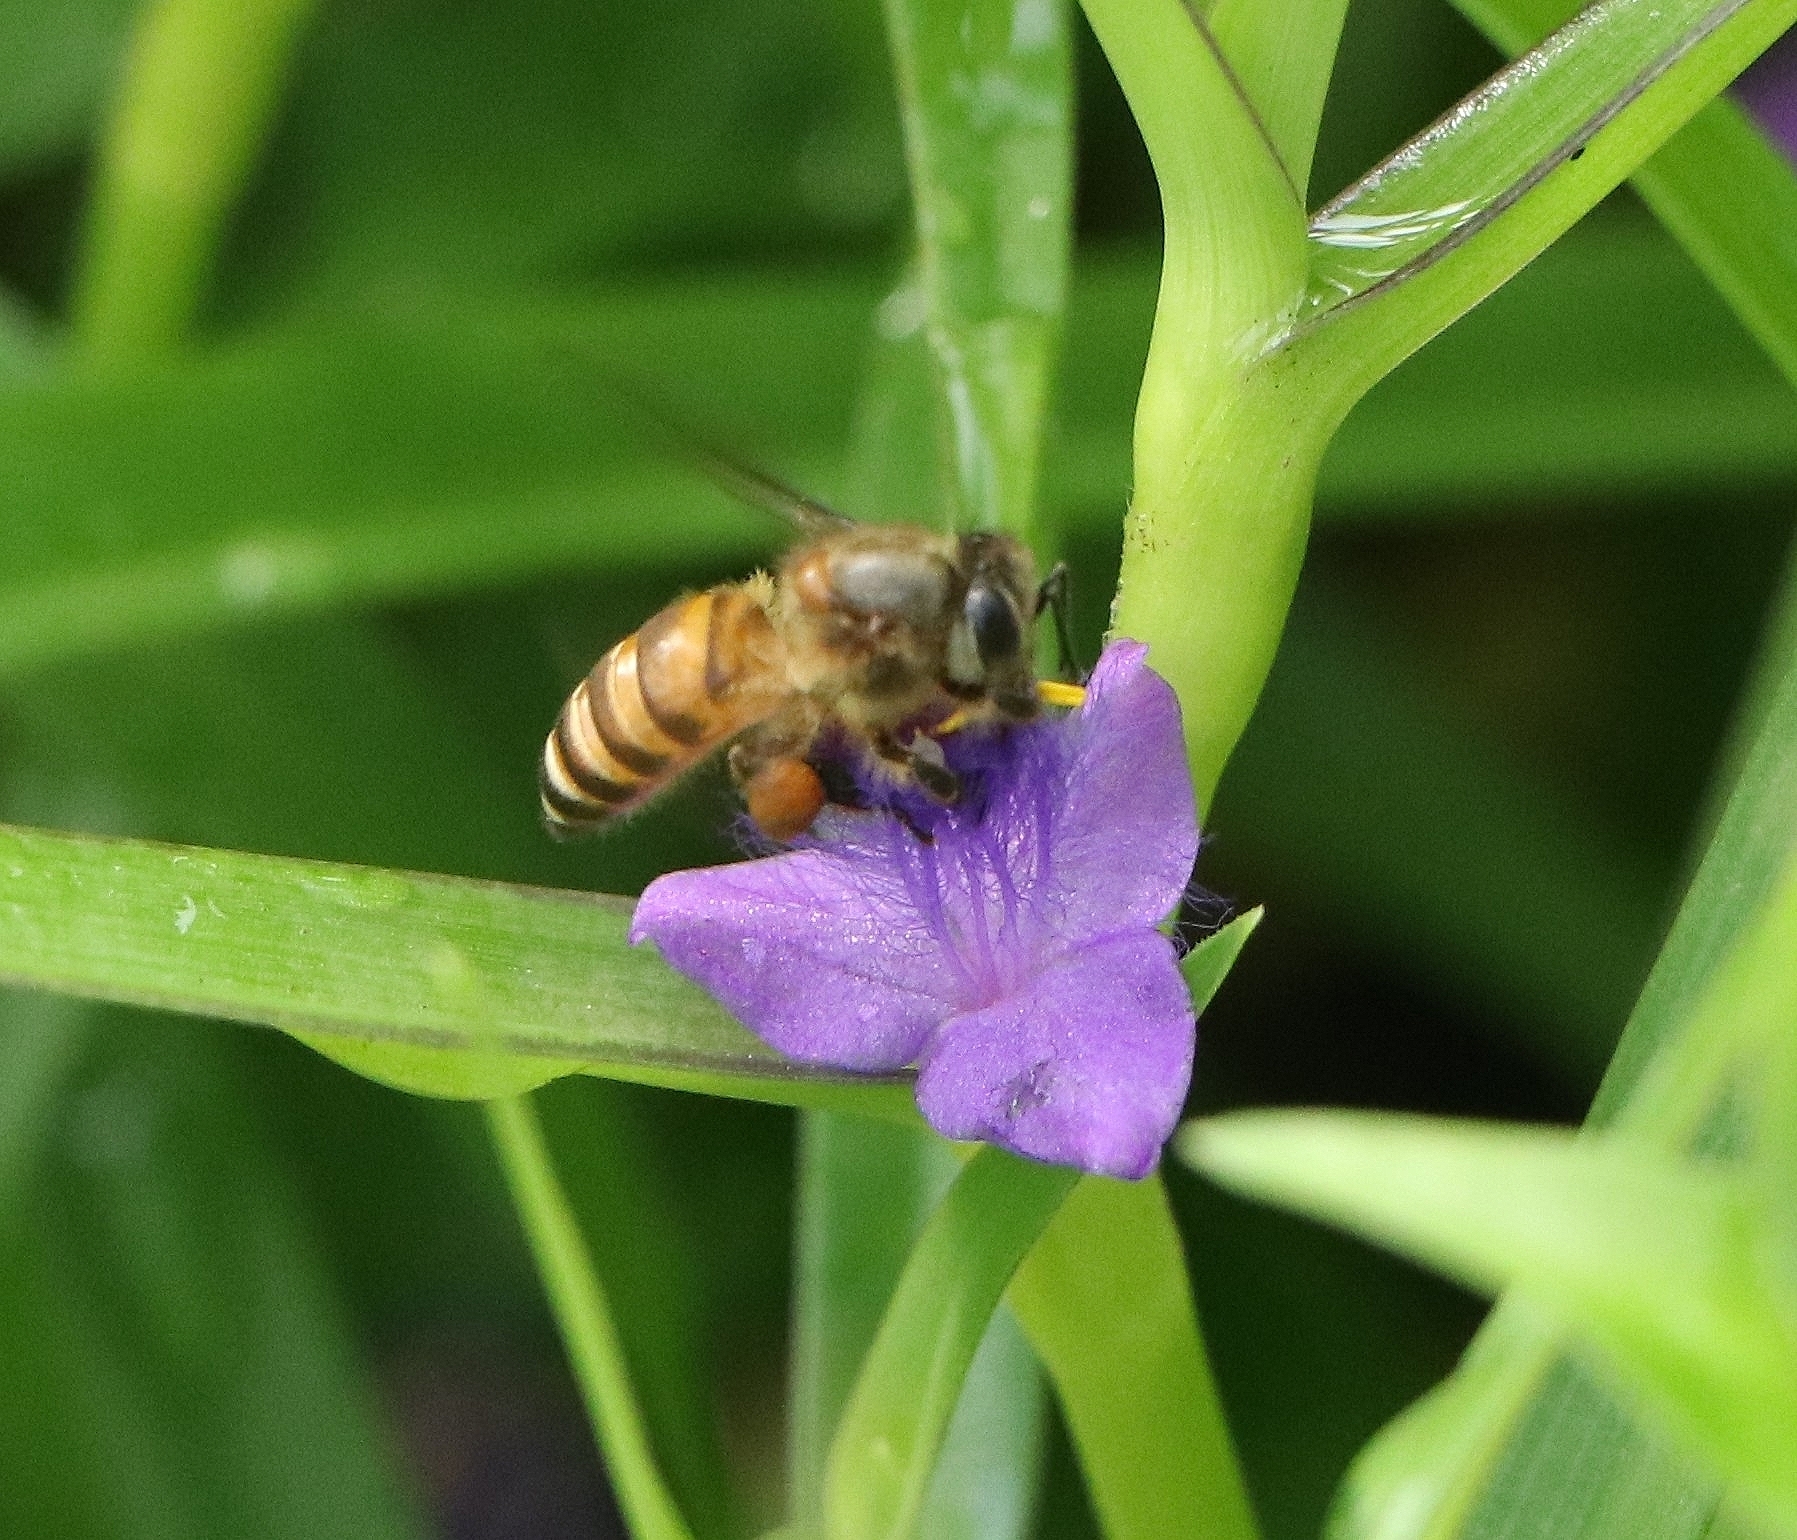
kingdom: Animalia
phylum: Arthropoda
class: Insecta
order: Hymenoptera
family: Apidae
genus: Apis
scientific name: Apis cerana
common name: Honey bee
